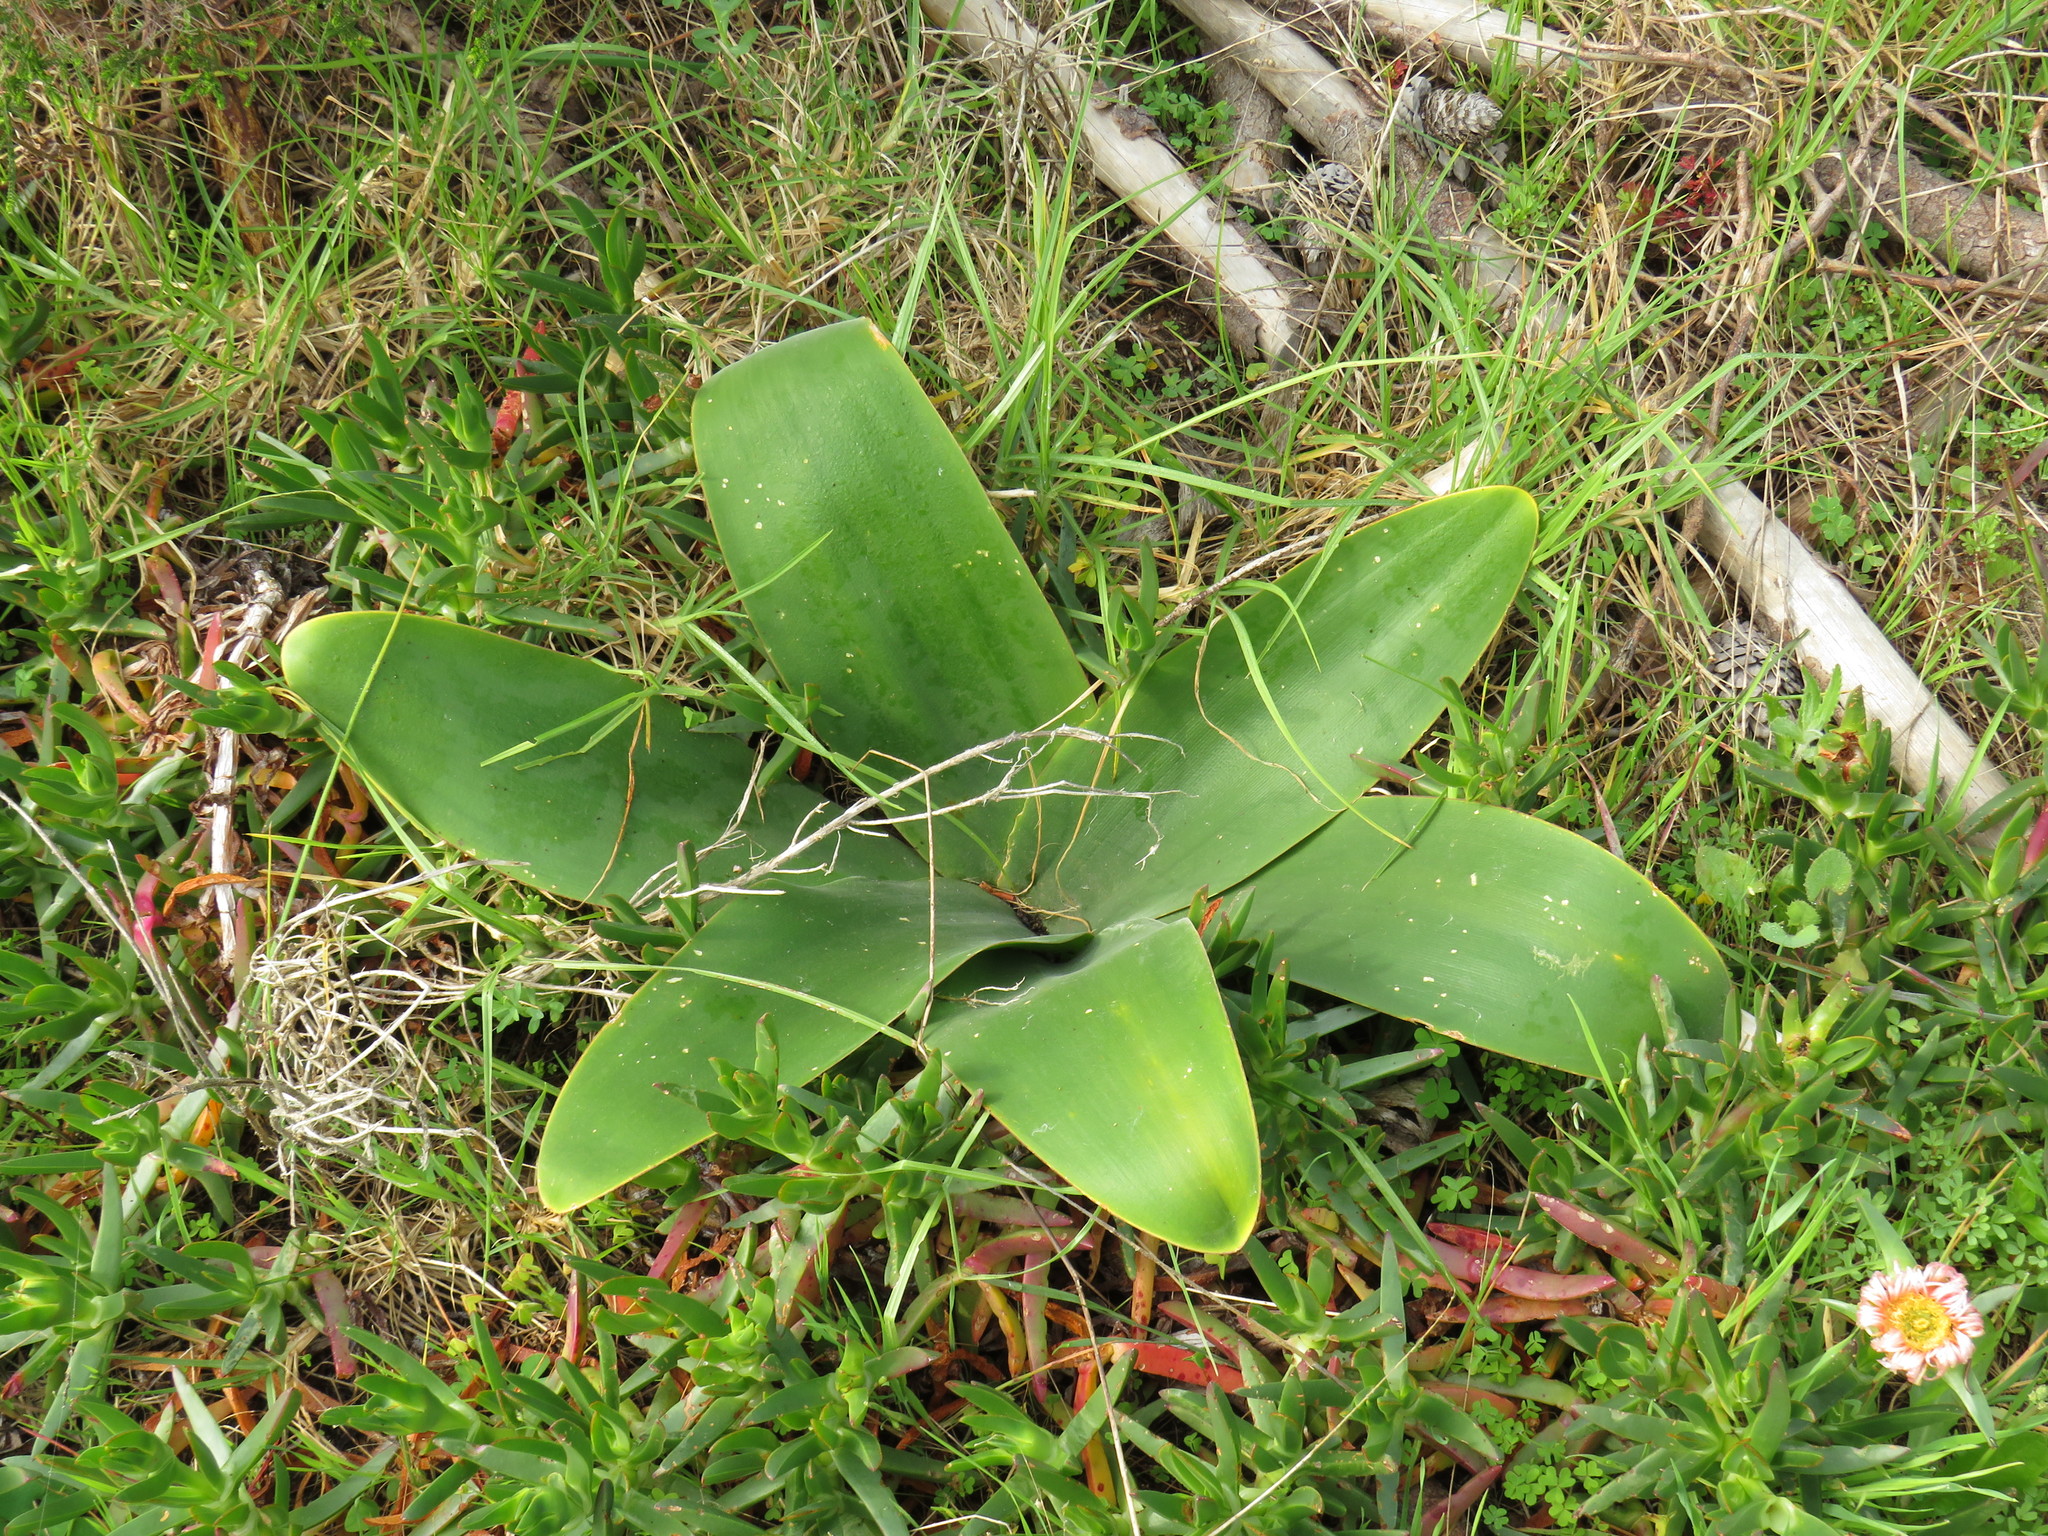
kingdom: Plantae
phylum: Tracheophyta
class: Liliopsida
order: Asparagales
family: Amaryllidaceae
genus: Brunsvigia
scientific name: Brunsvigia orientalis
